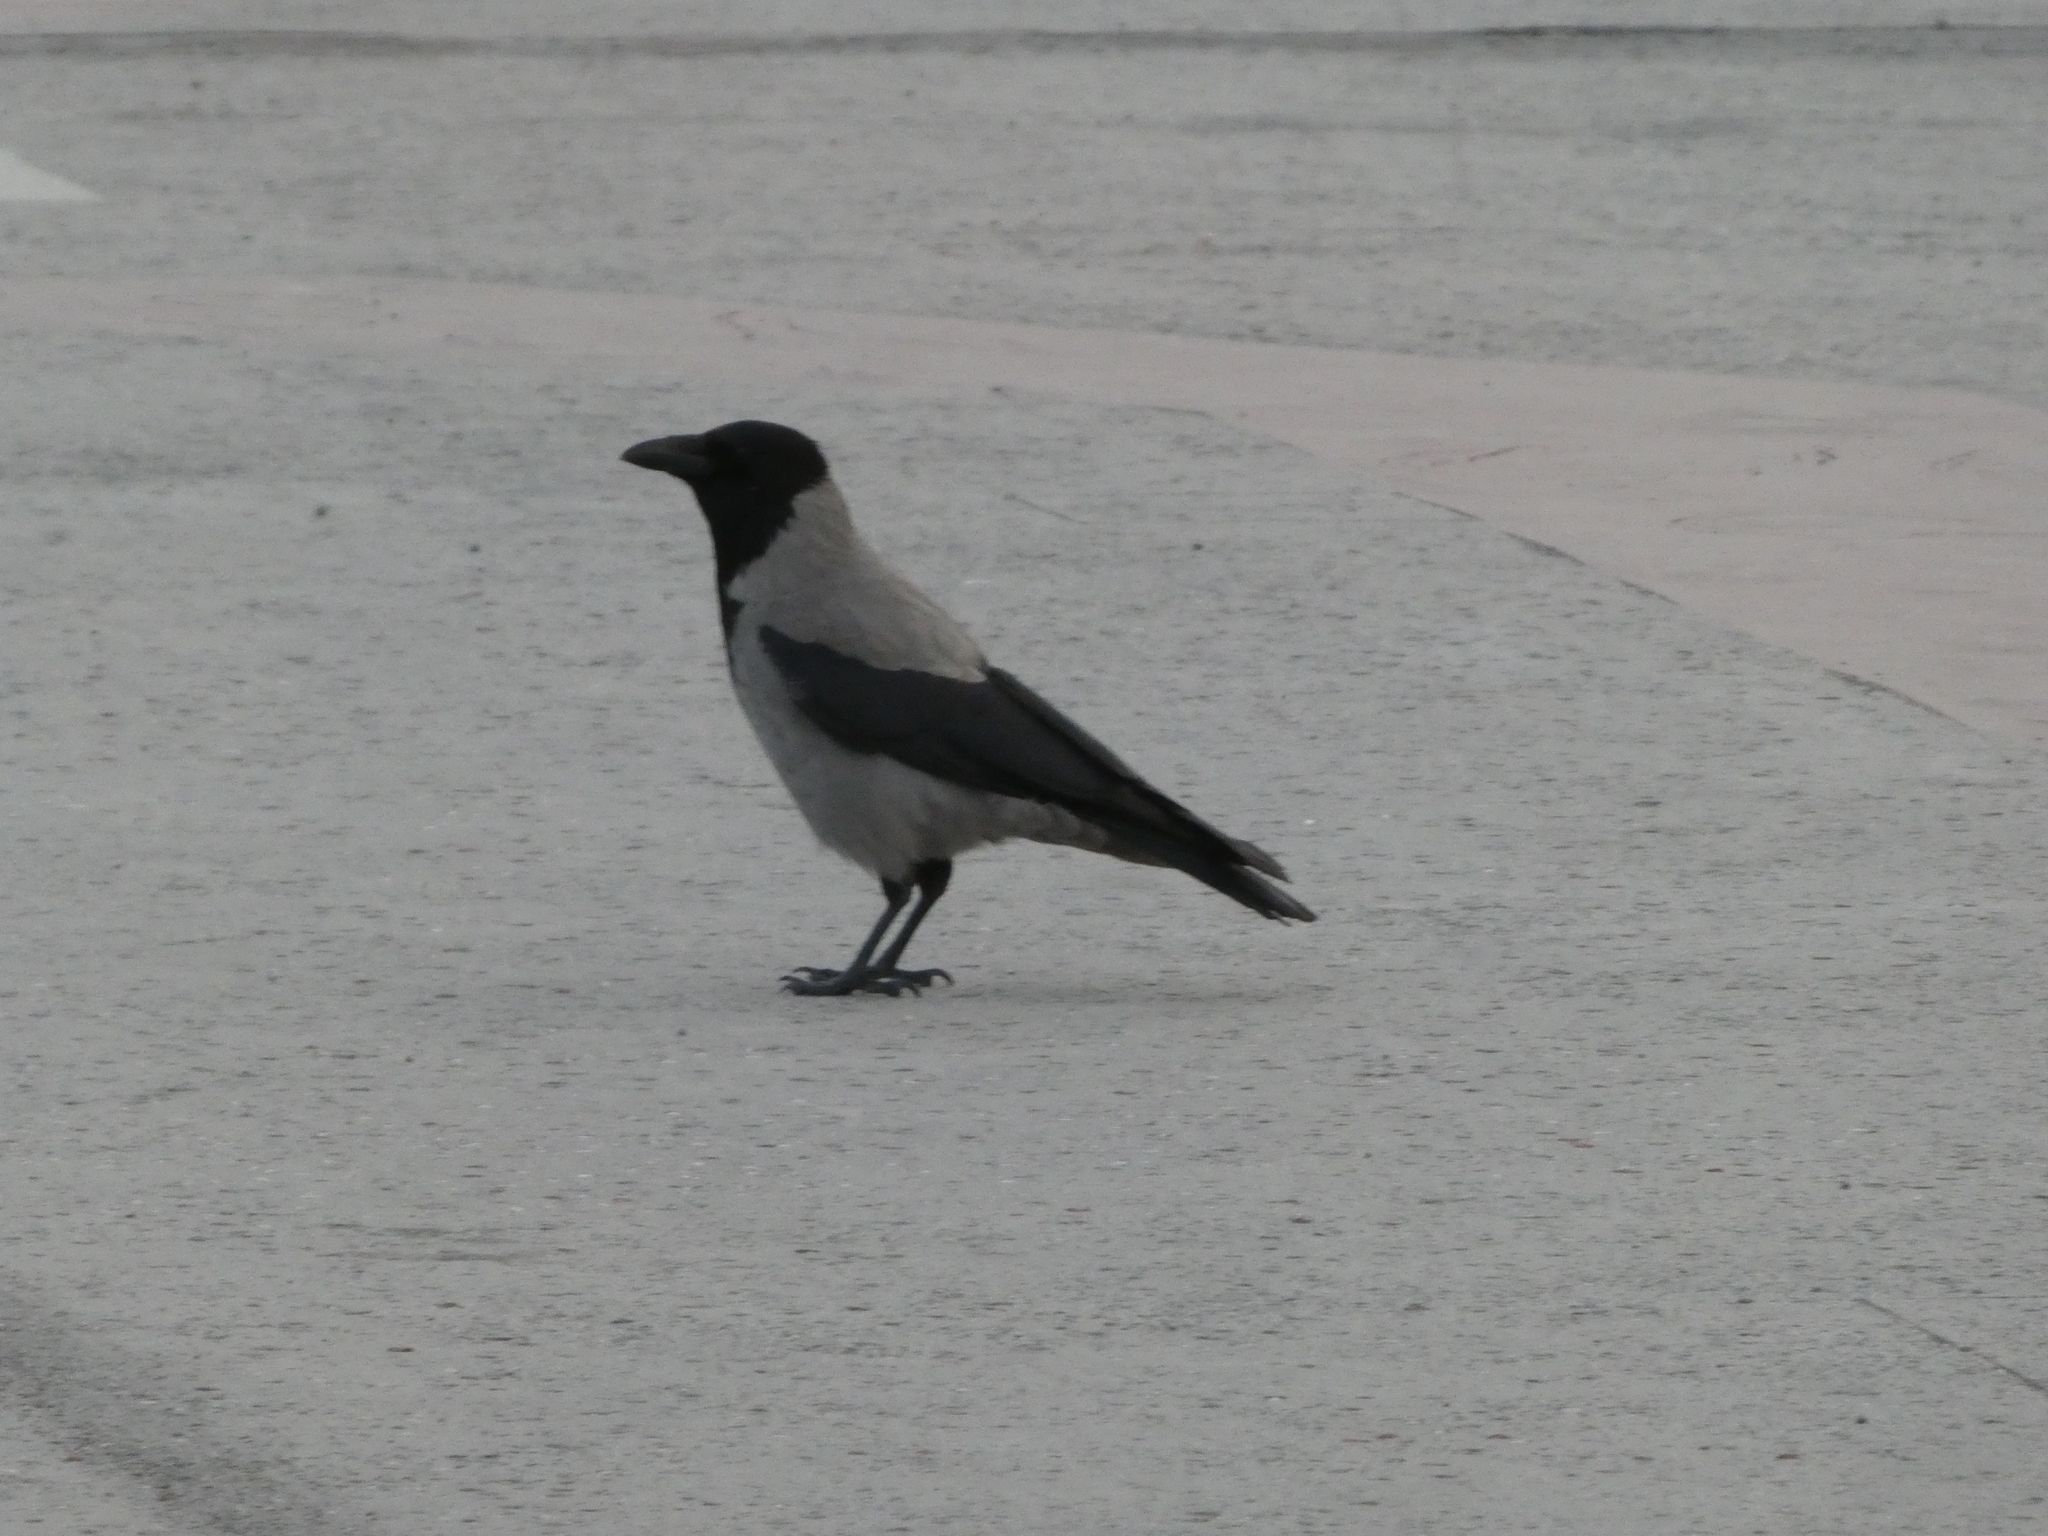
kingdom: Animalia
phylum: Chordata
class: Aves
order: Passeriformes
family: Corvidae
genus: Corvus
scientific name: Corvus cornix
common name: Hooded crow
